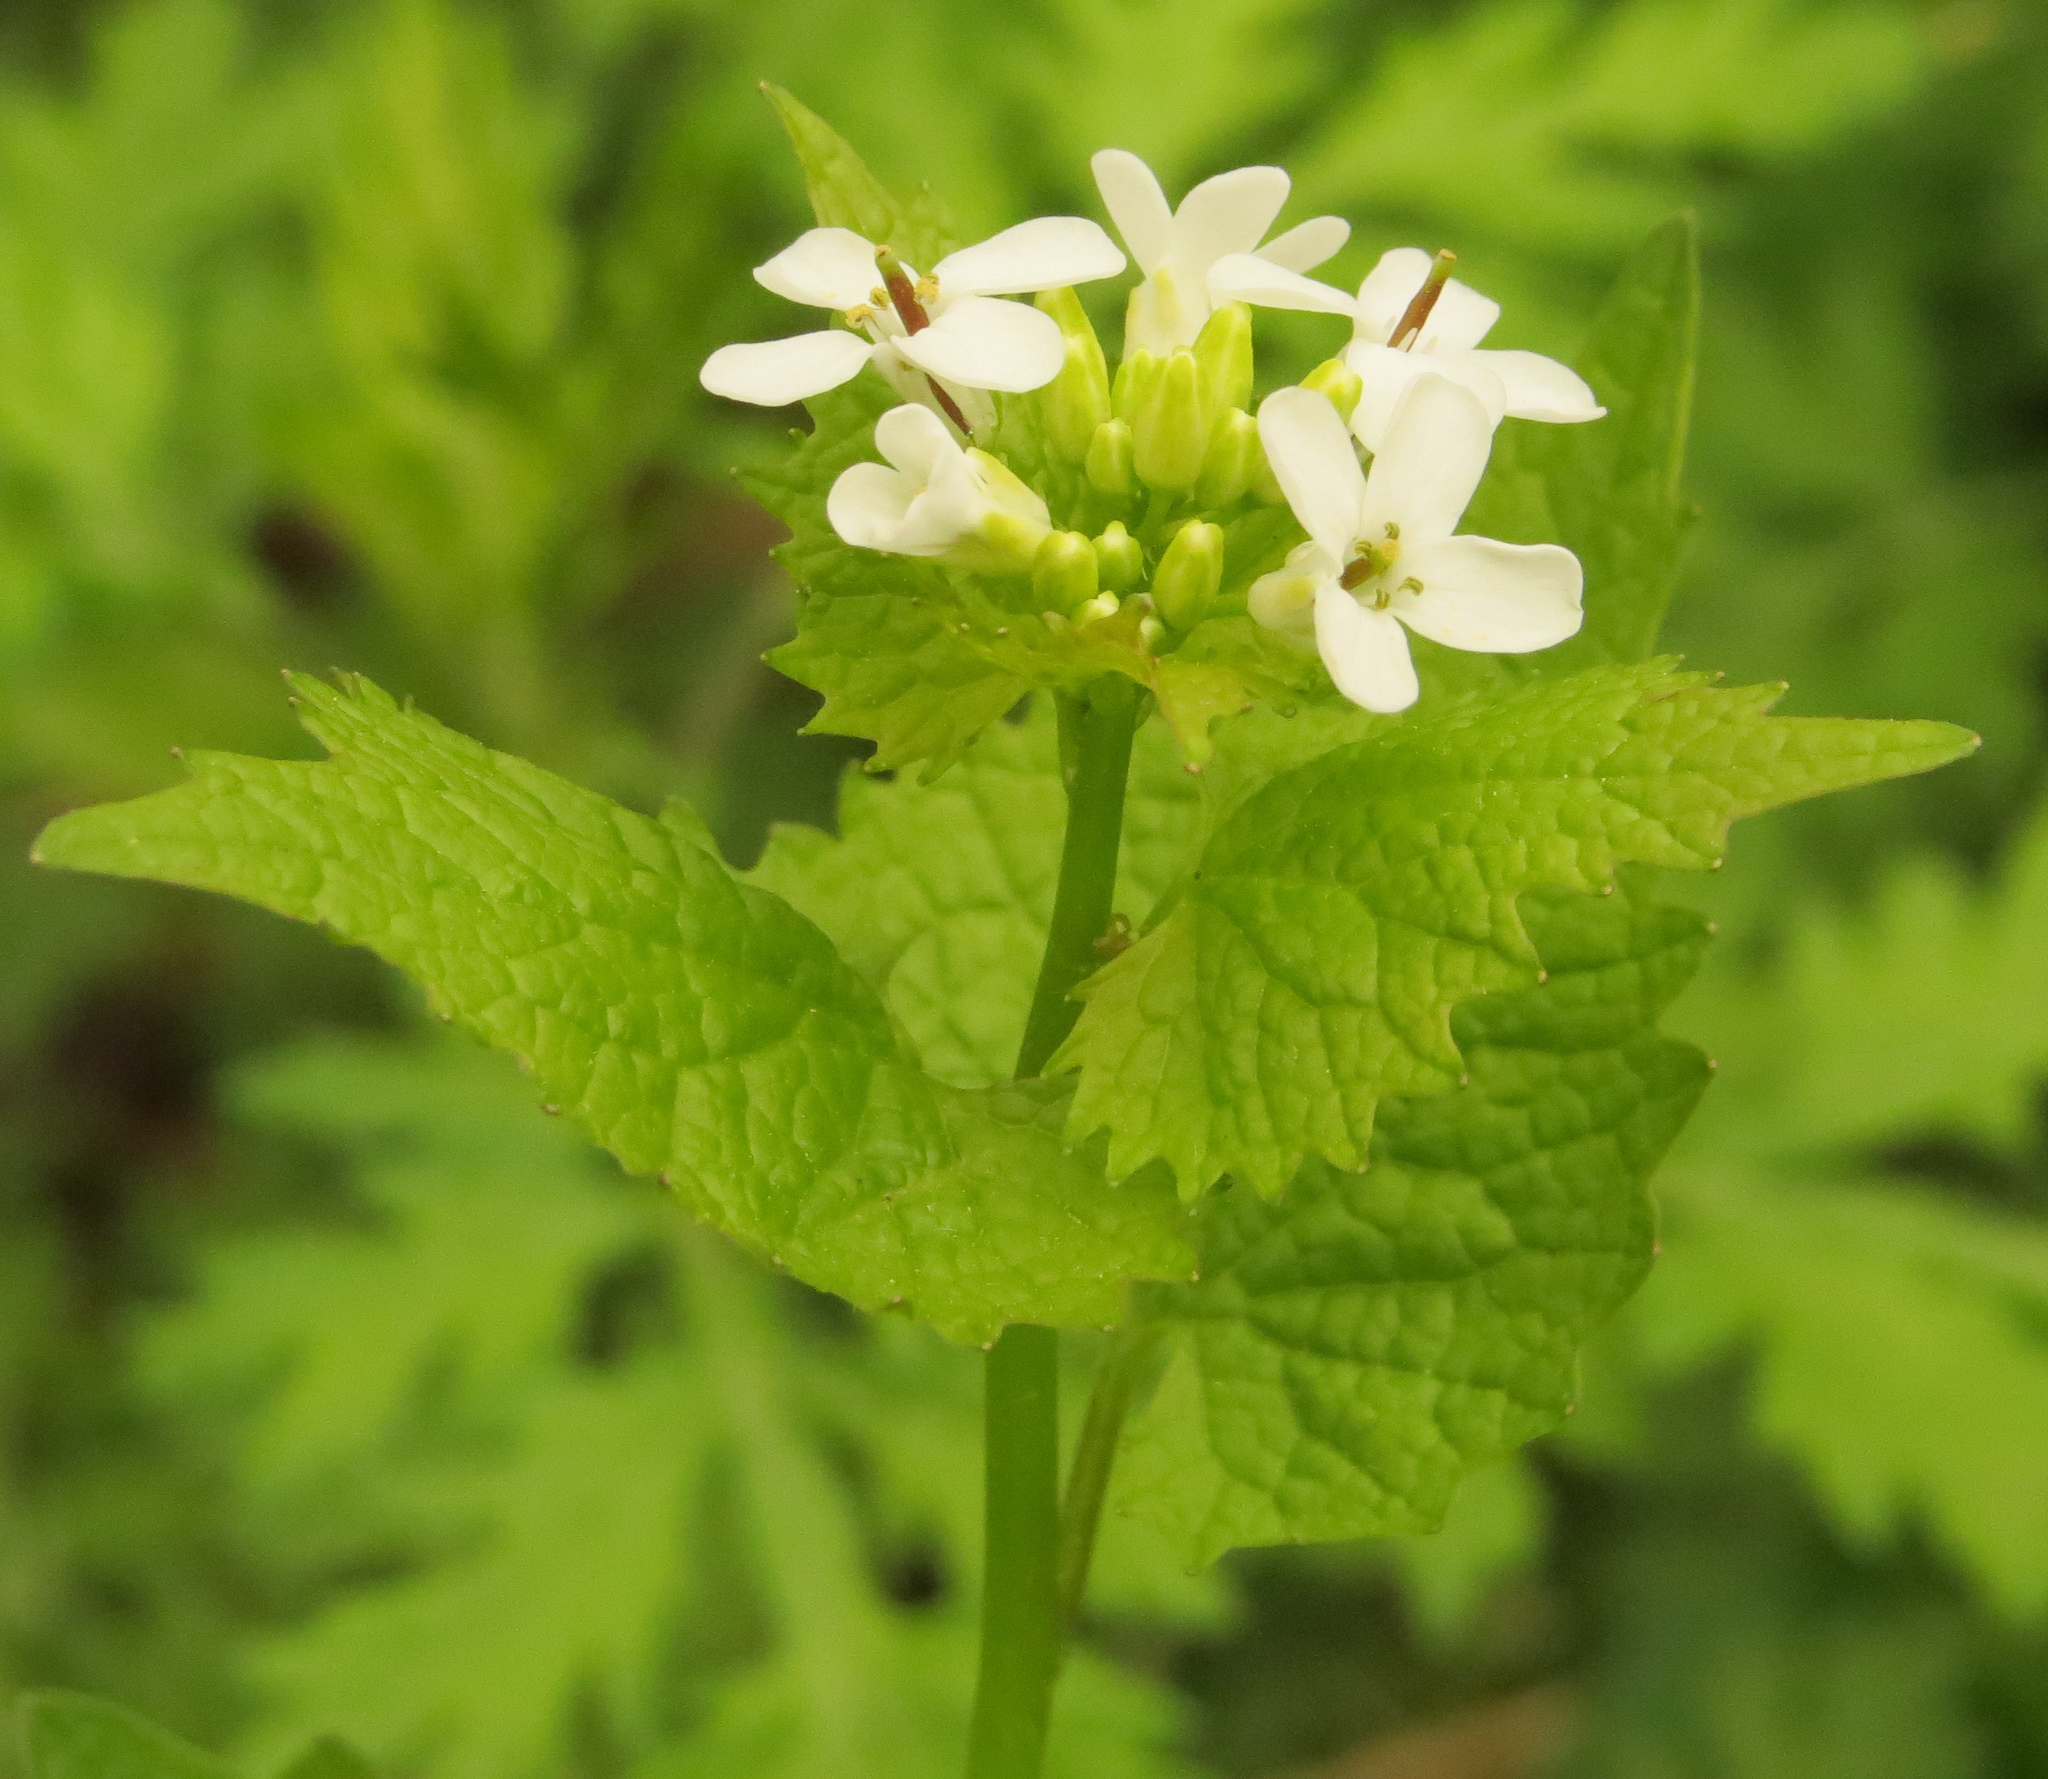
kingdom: Plantae
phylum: Tracheophyta
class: Magnoliopsida
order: Brassicales
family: Brassicaceae
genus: Alliaria
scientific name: Alliaria petiolata
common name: Garlic mustard
